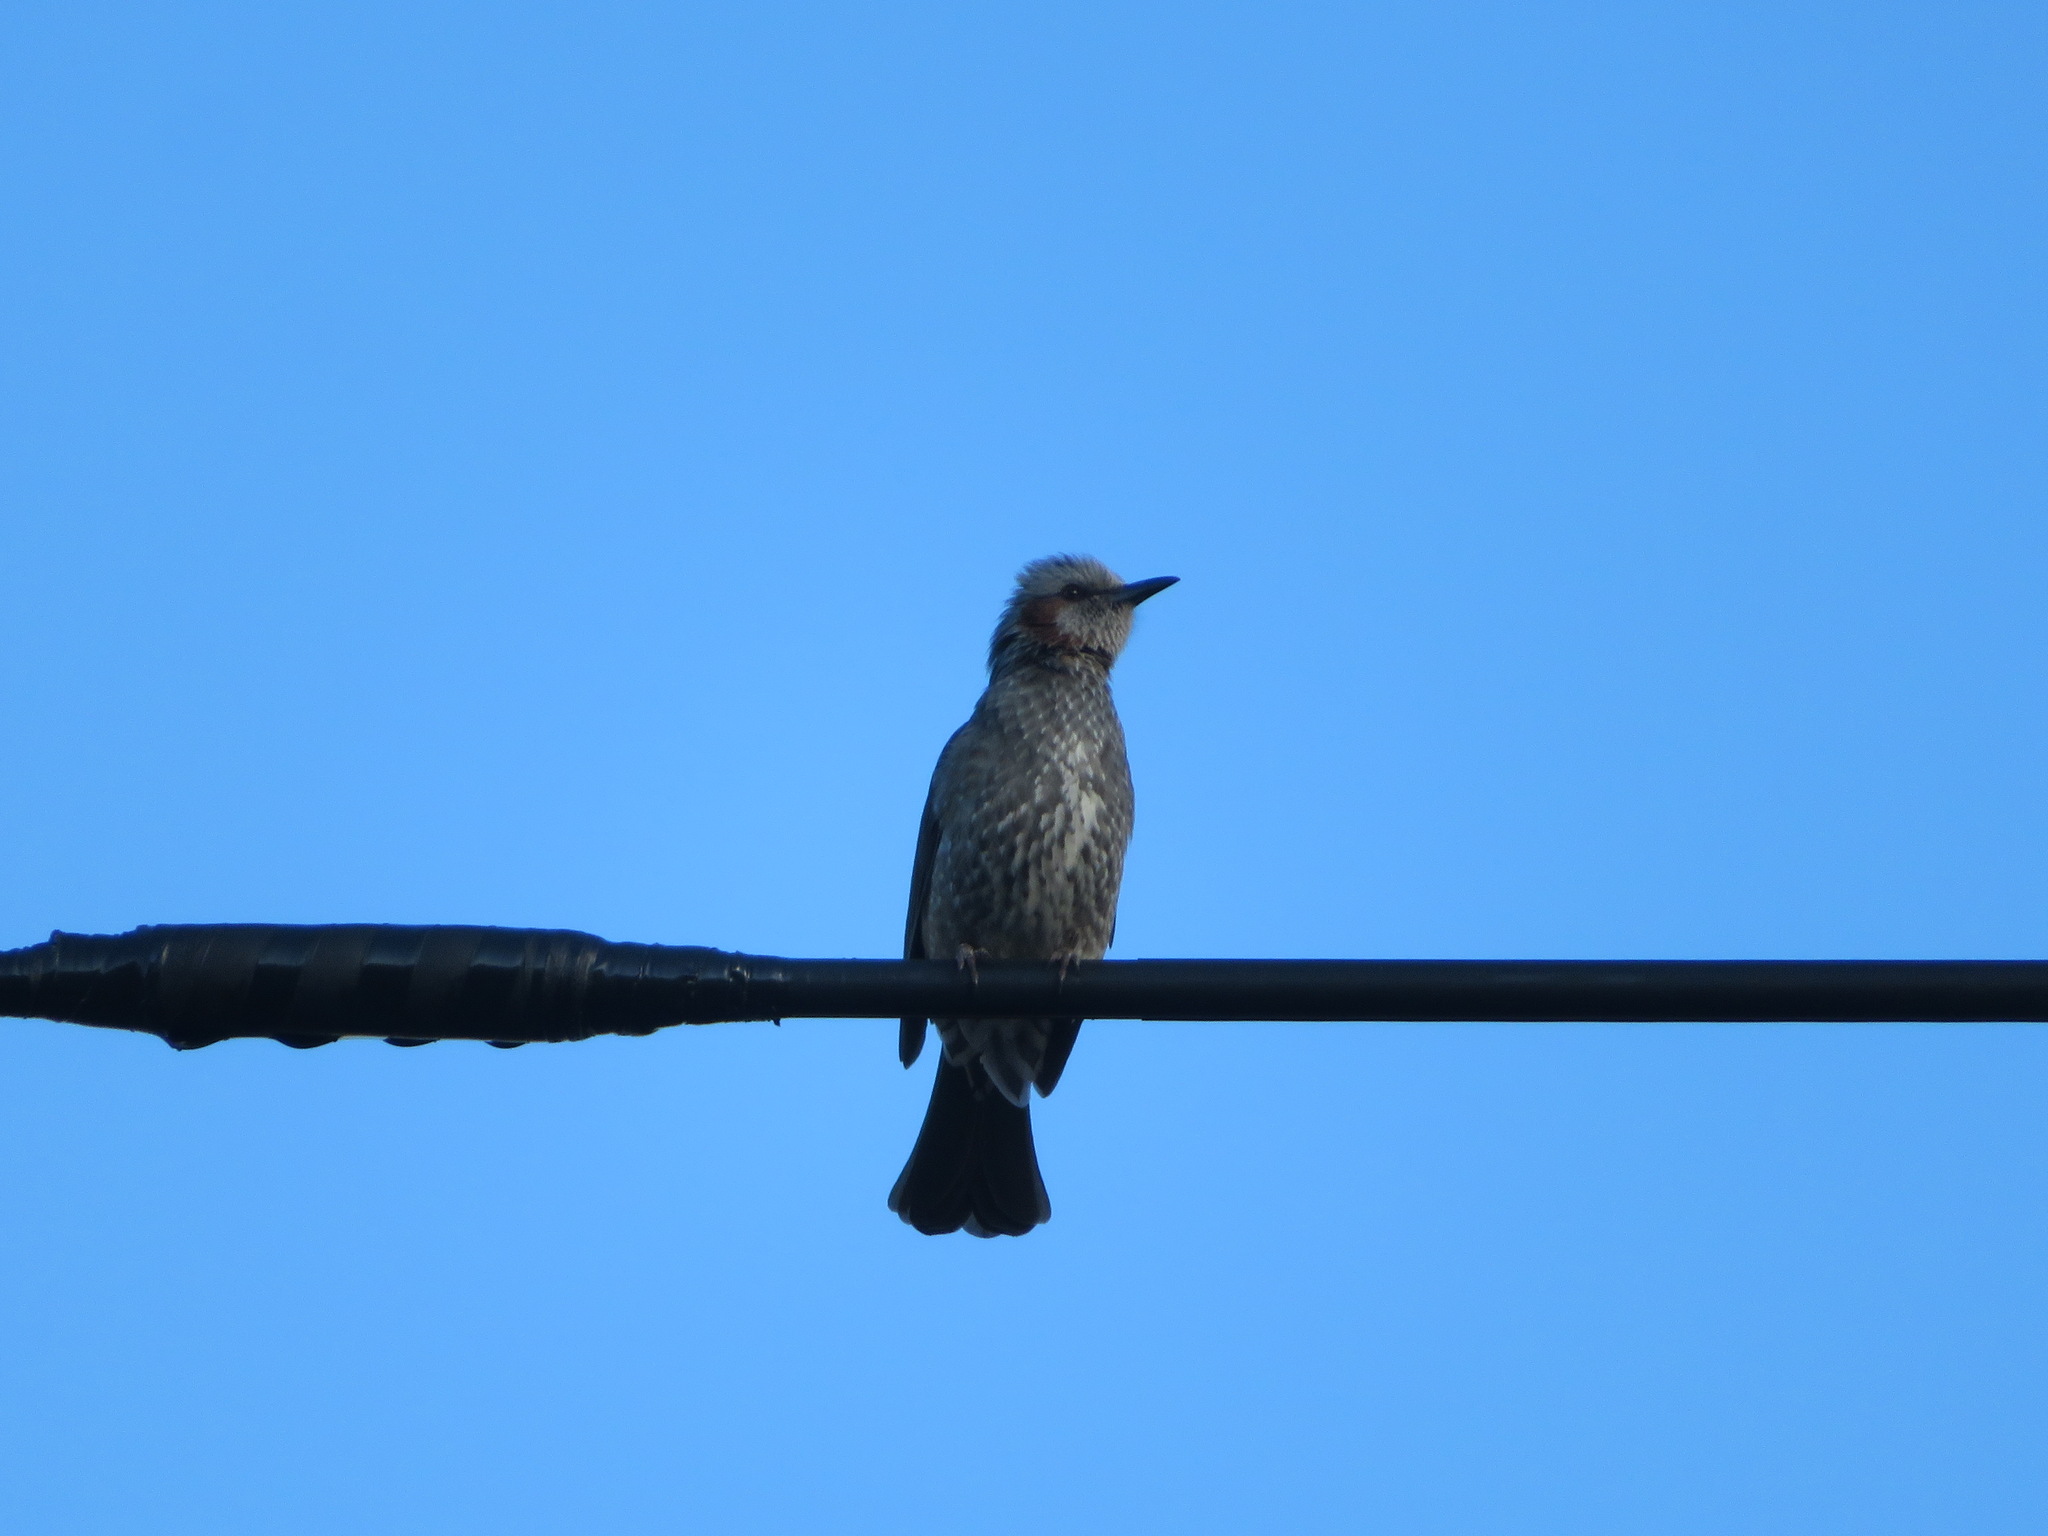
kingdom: Animalia
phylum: Chordata
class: Aves
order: Passeriformes
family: Pycnonotidae
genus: Hypsipetes
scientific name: Hypsipetes amaurotis
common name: Brown-eared bulbul
